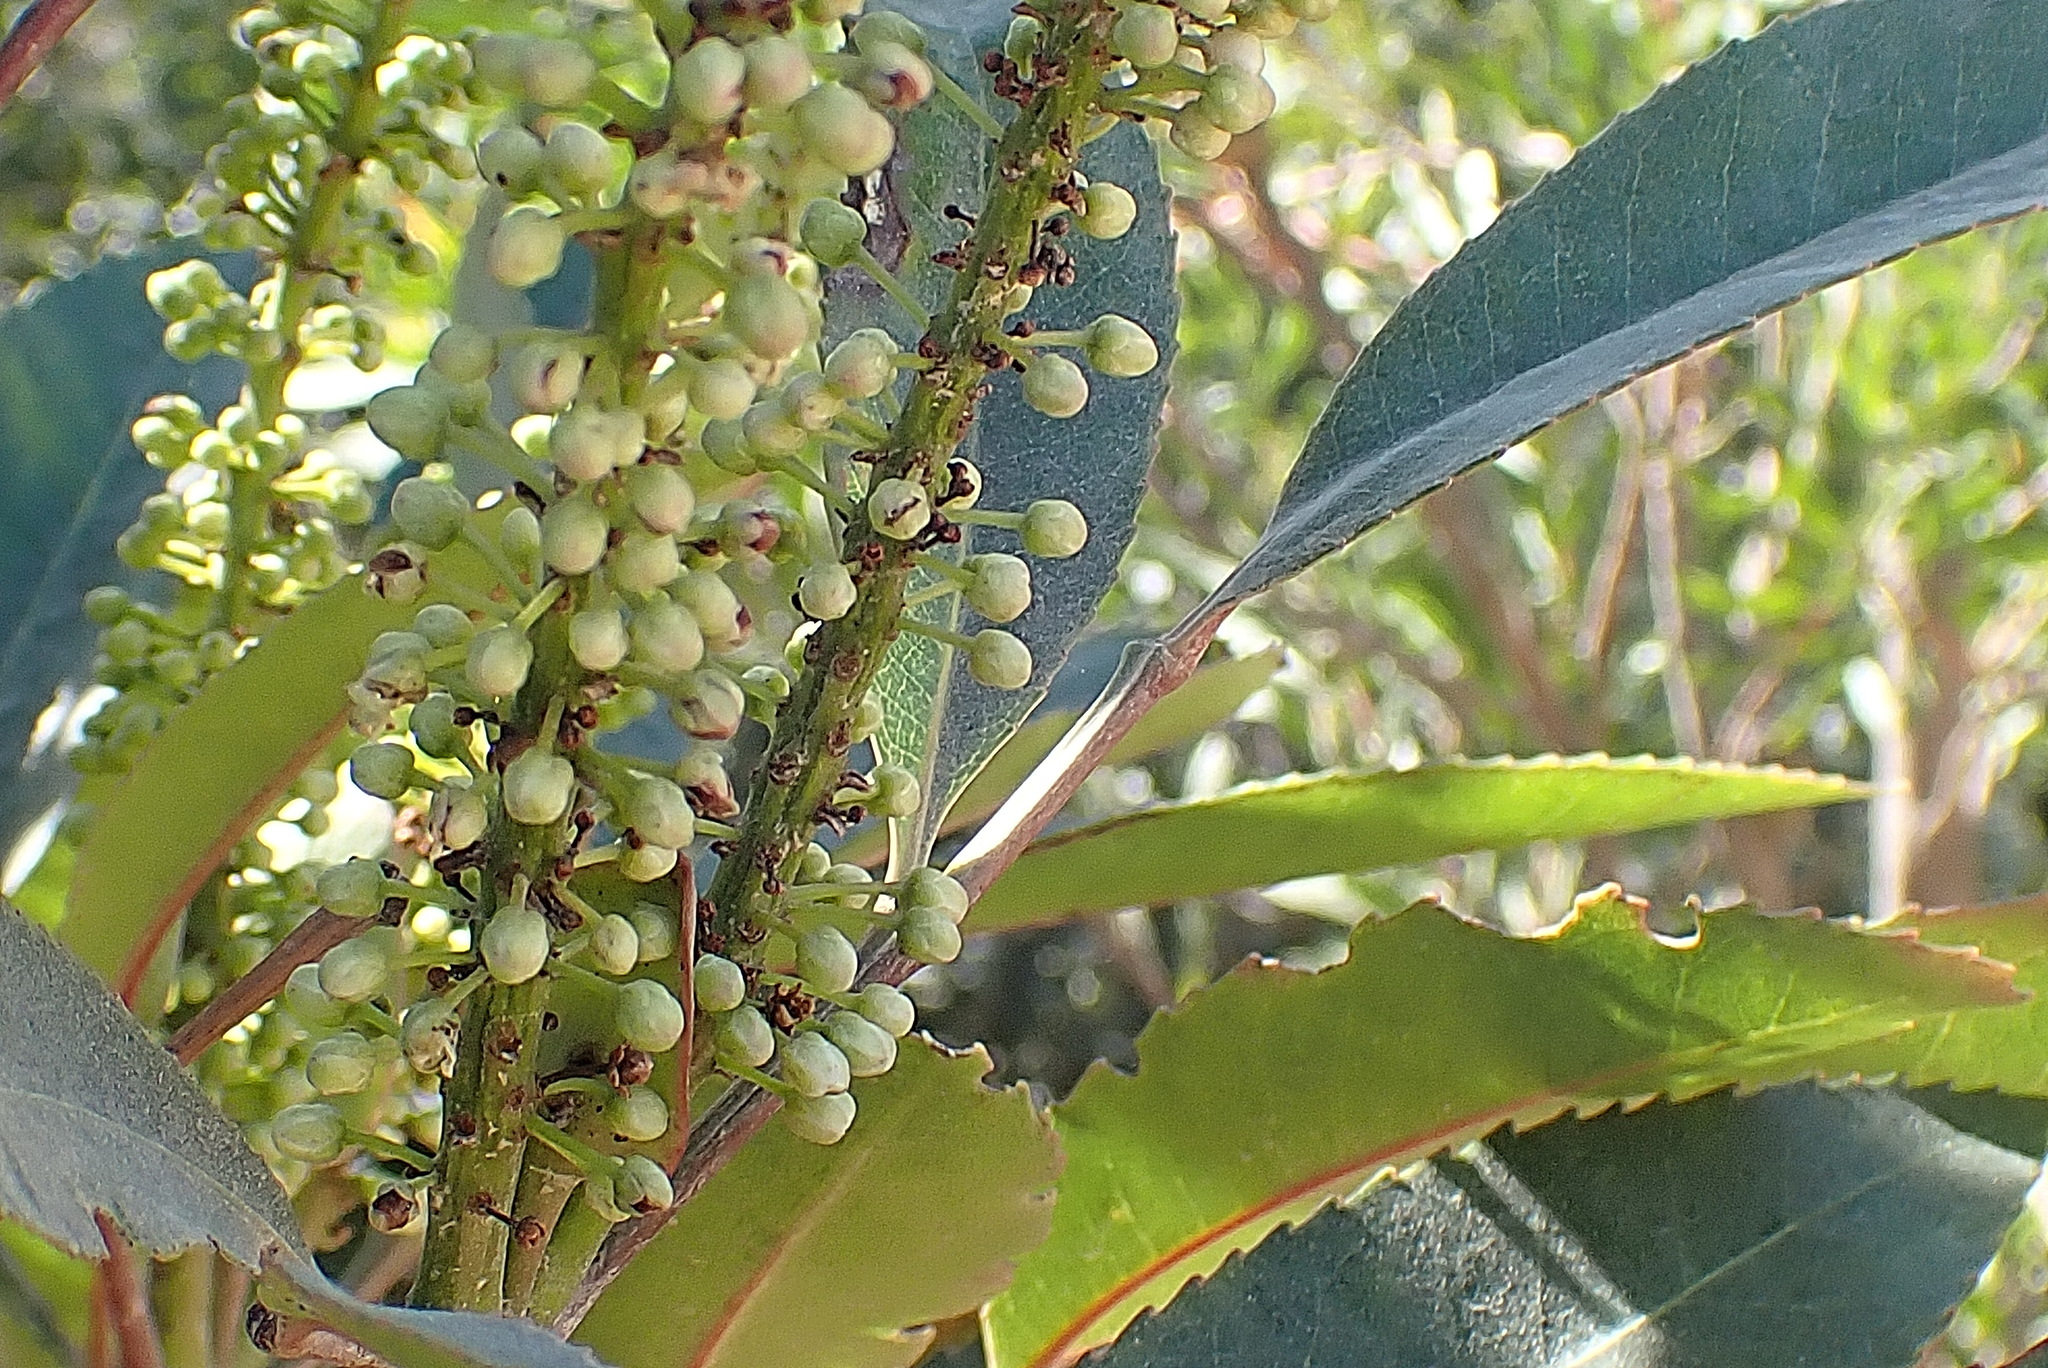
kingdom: Plantae
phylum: Tracheophyta
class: Magnoliopsida
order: Oxalidales
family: Cunoniaceae
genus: Cunonia
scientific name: Cunonia capensis
